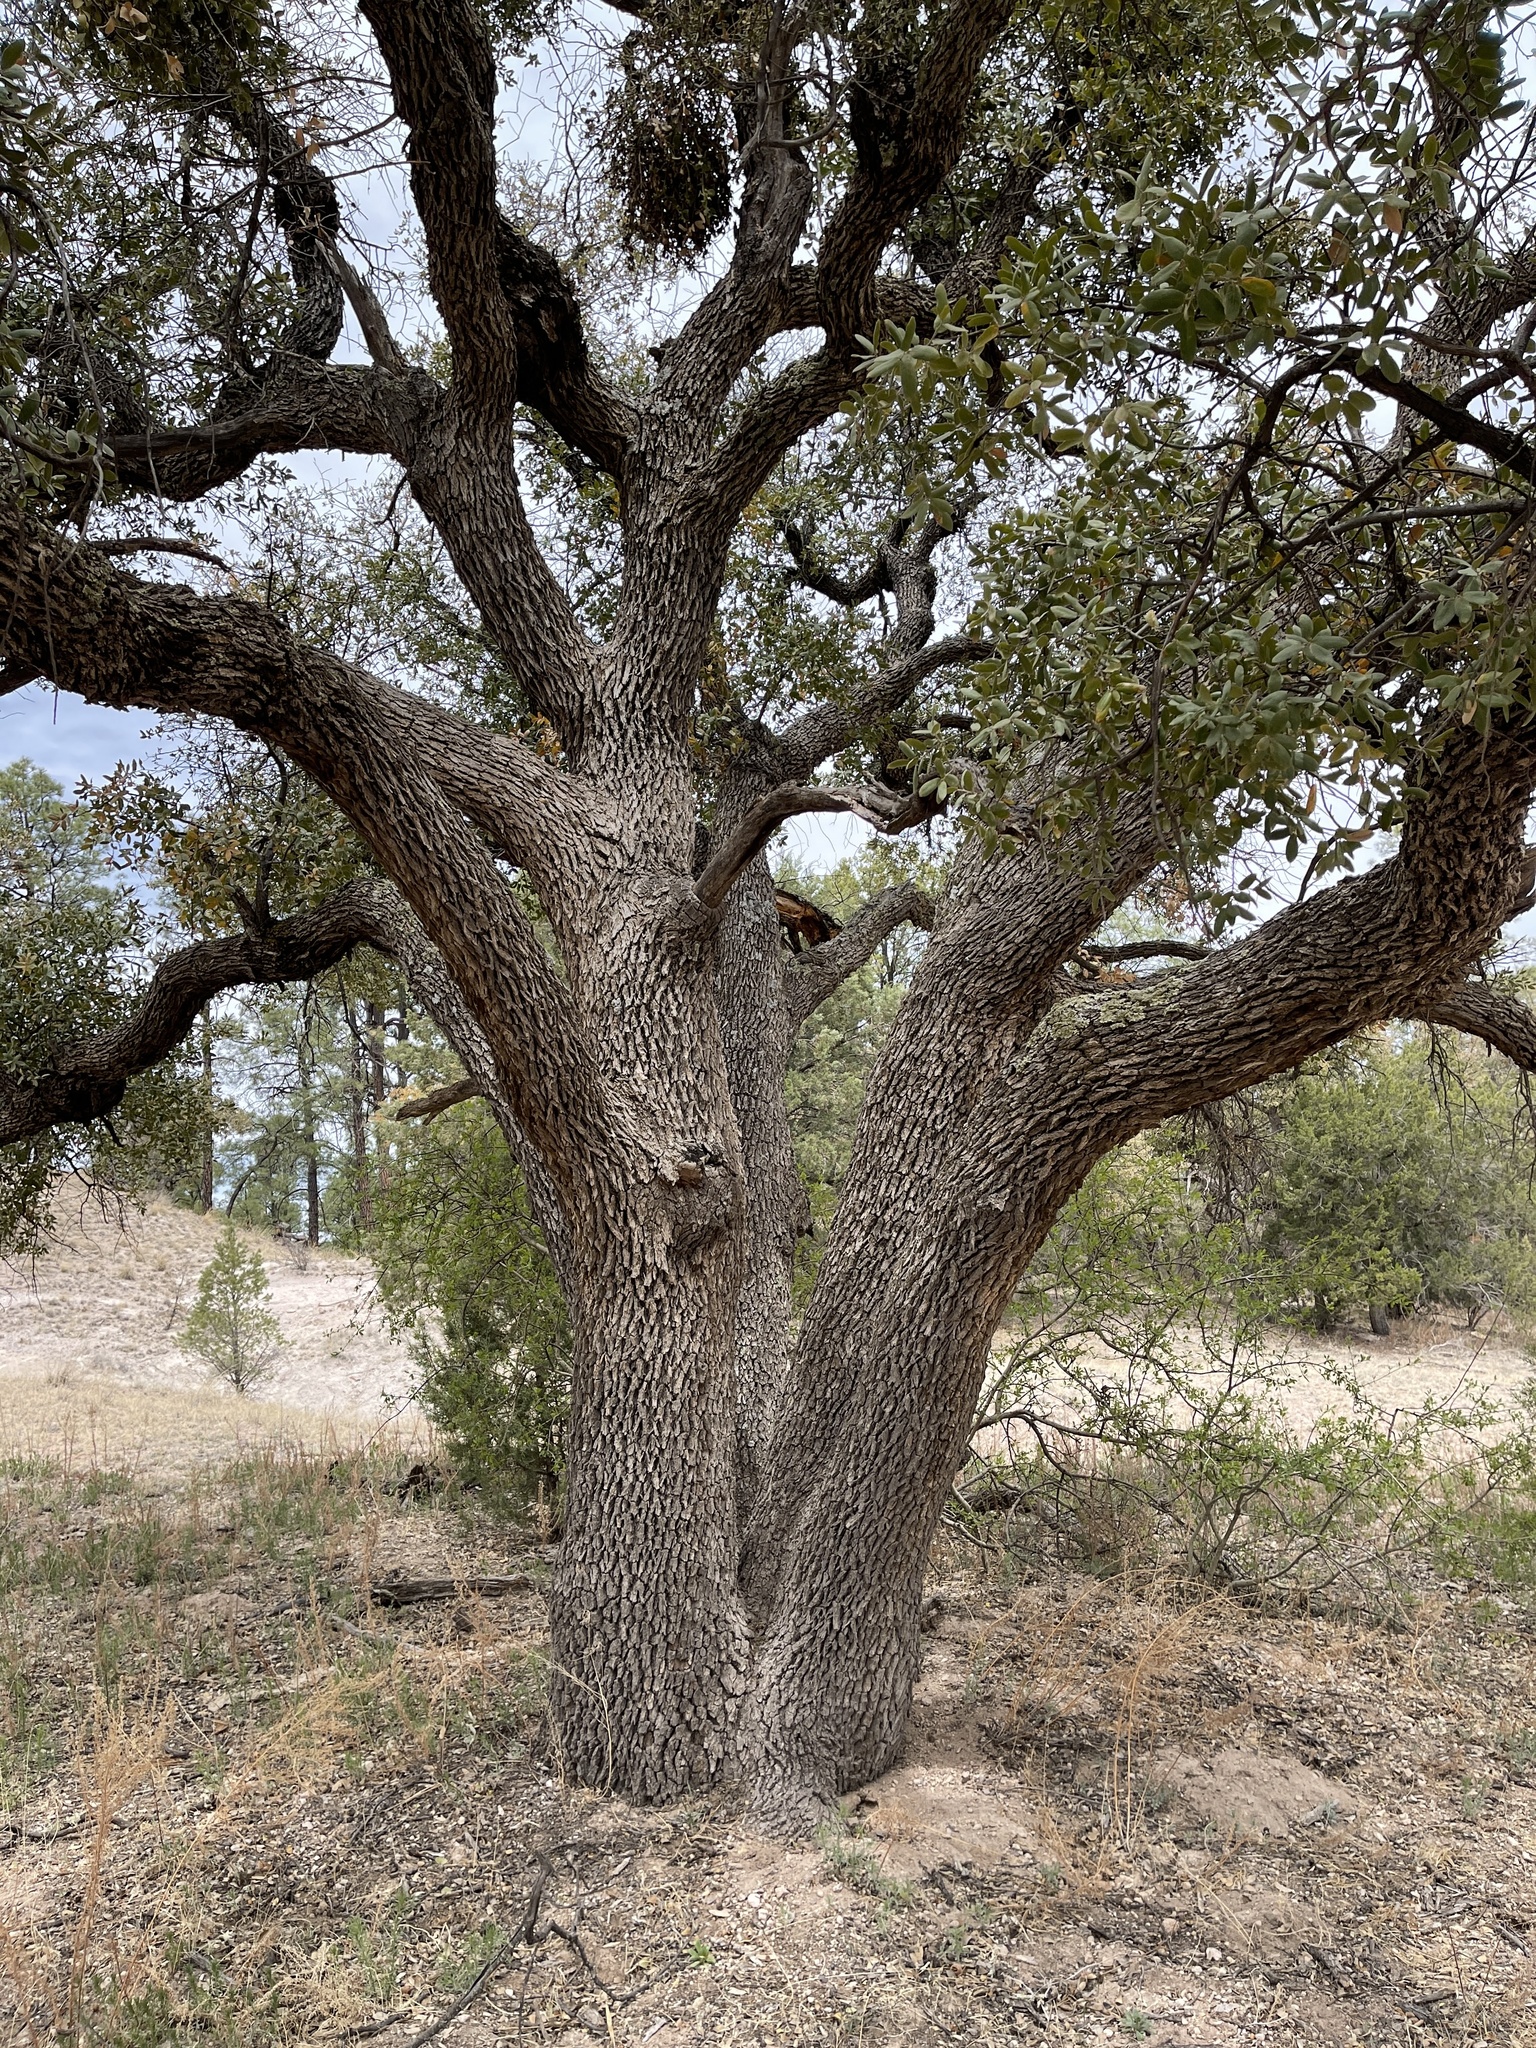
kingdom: Plantae
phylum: Tracheophyta
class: Magnoliopsida
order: Fagales
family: Fagaceae
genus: Quercus
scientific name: Quercus grisea
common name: Gray oak
